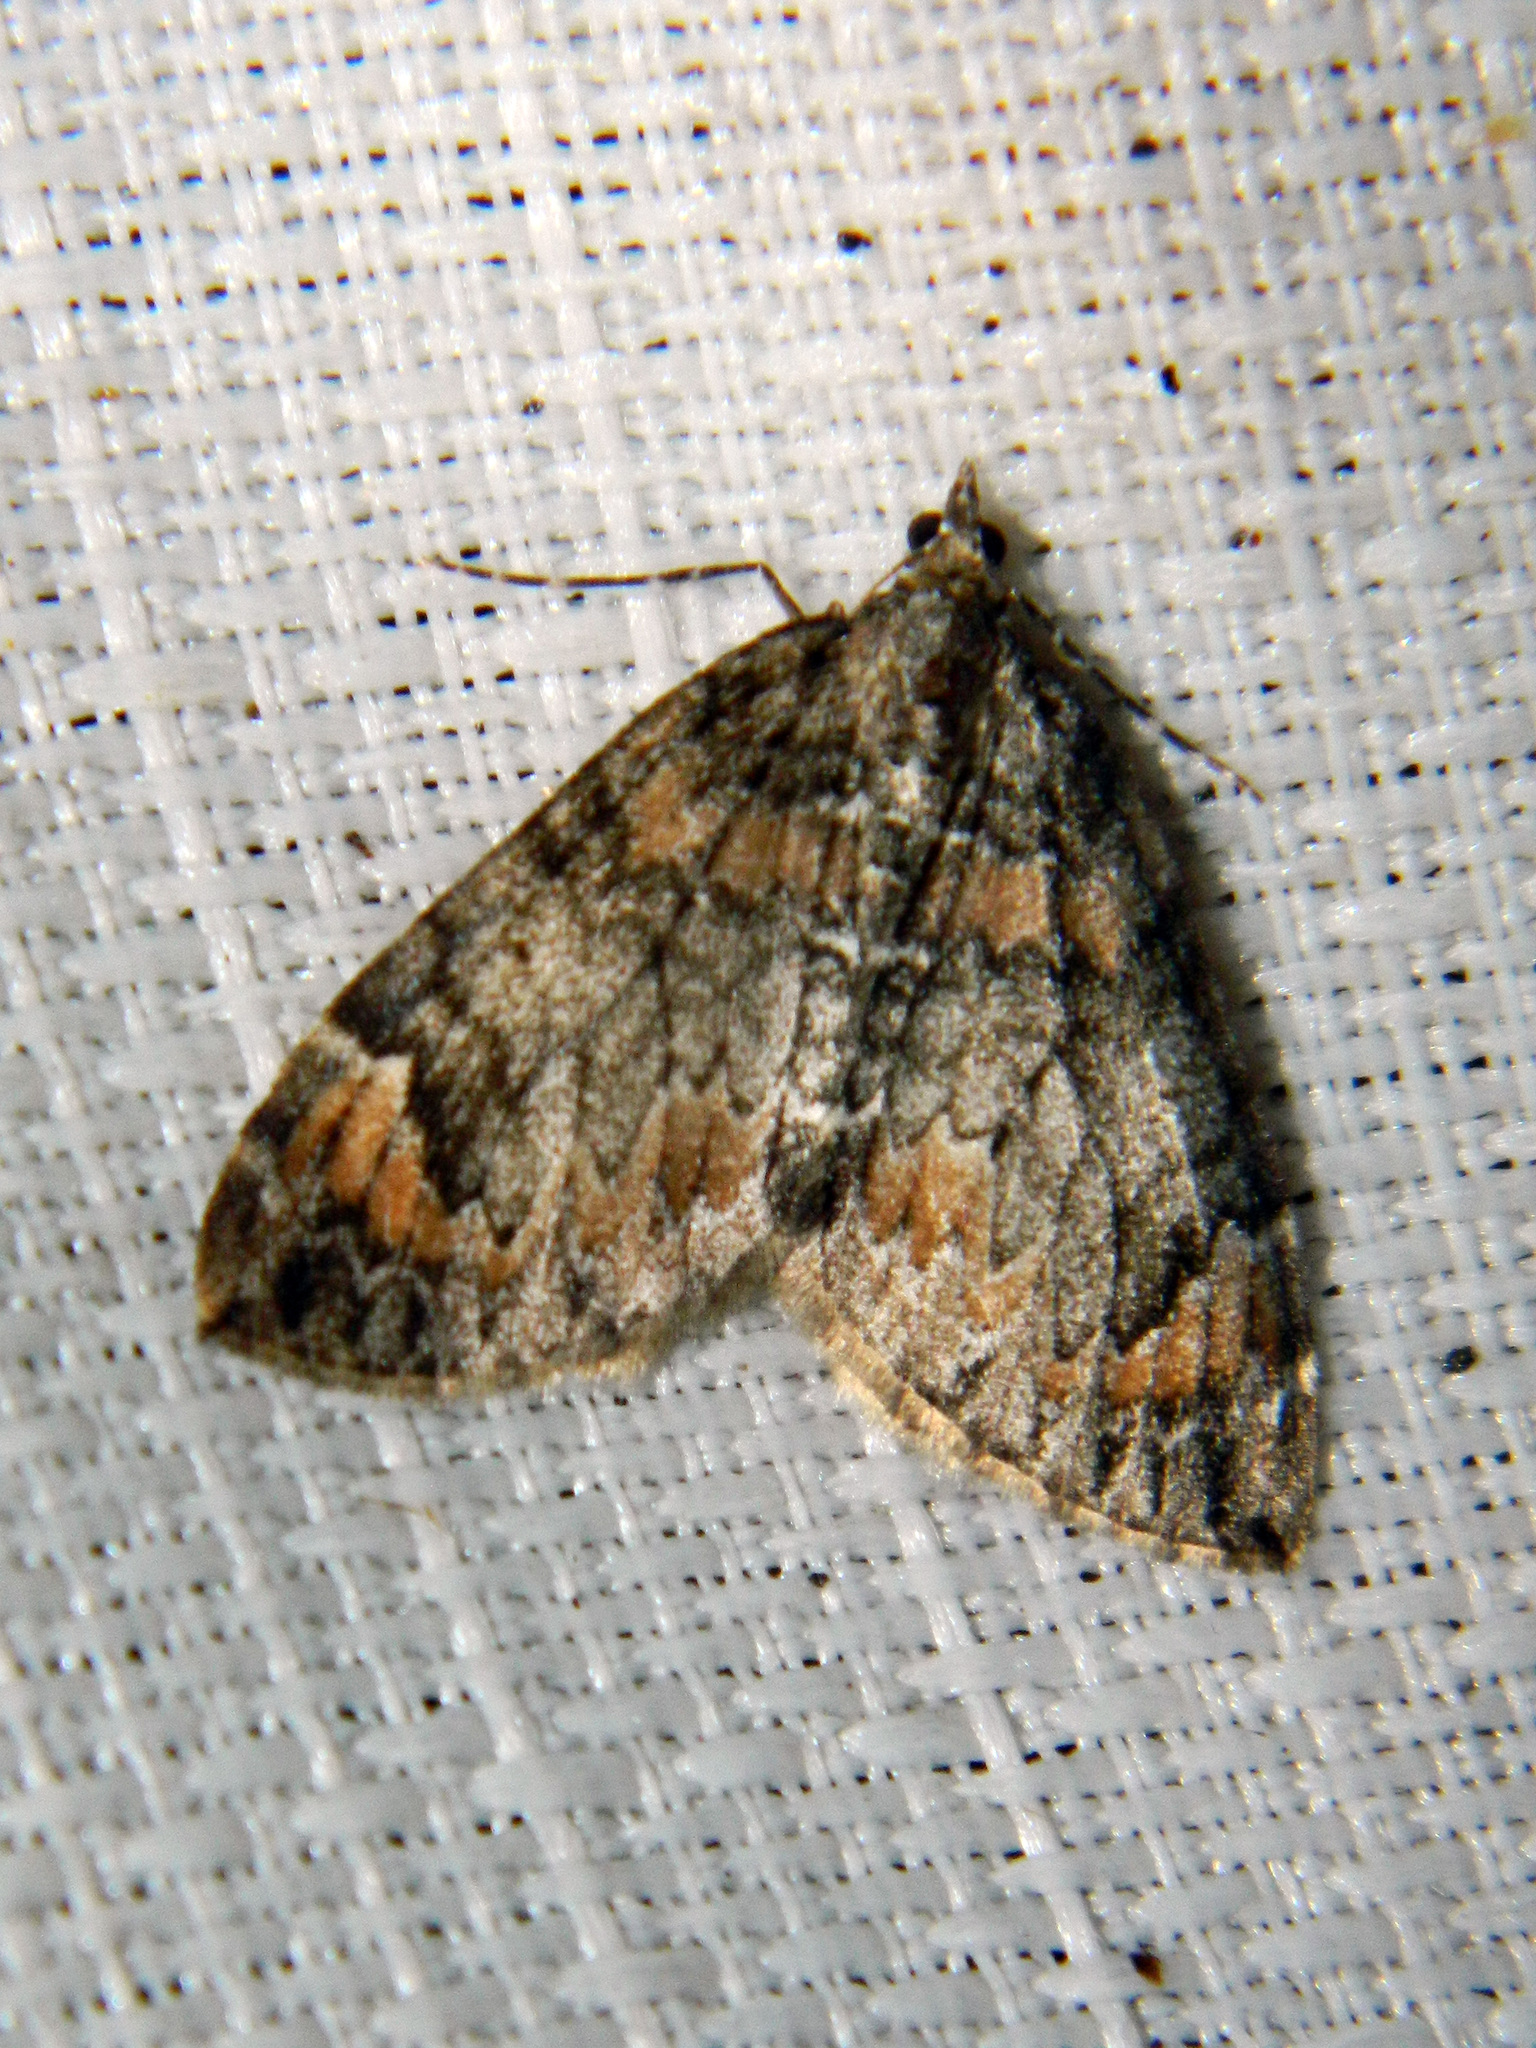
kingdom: Animalia
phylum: Arthropoda
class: Insecta
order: Lepidoptera
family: Geometridae
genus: Dysstroma
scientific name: Dysstroma citrata
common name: Dark marbled carpet
